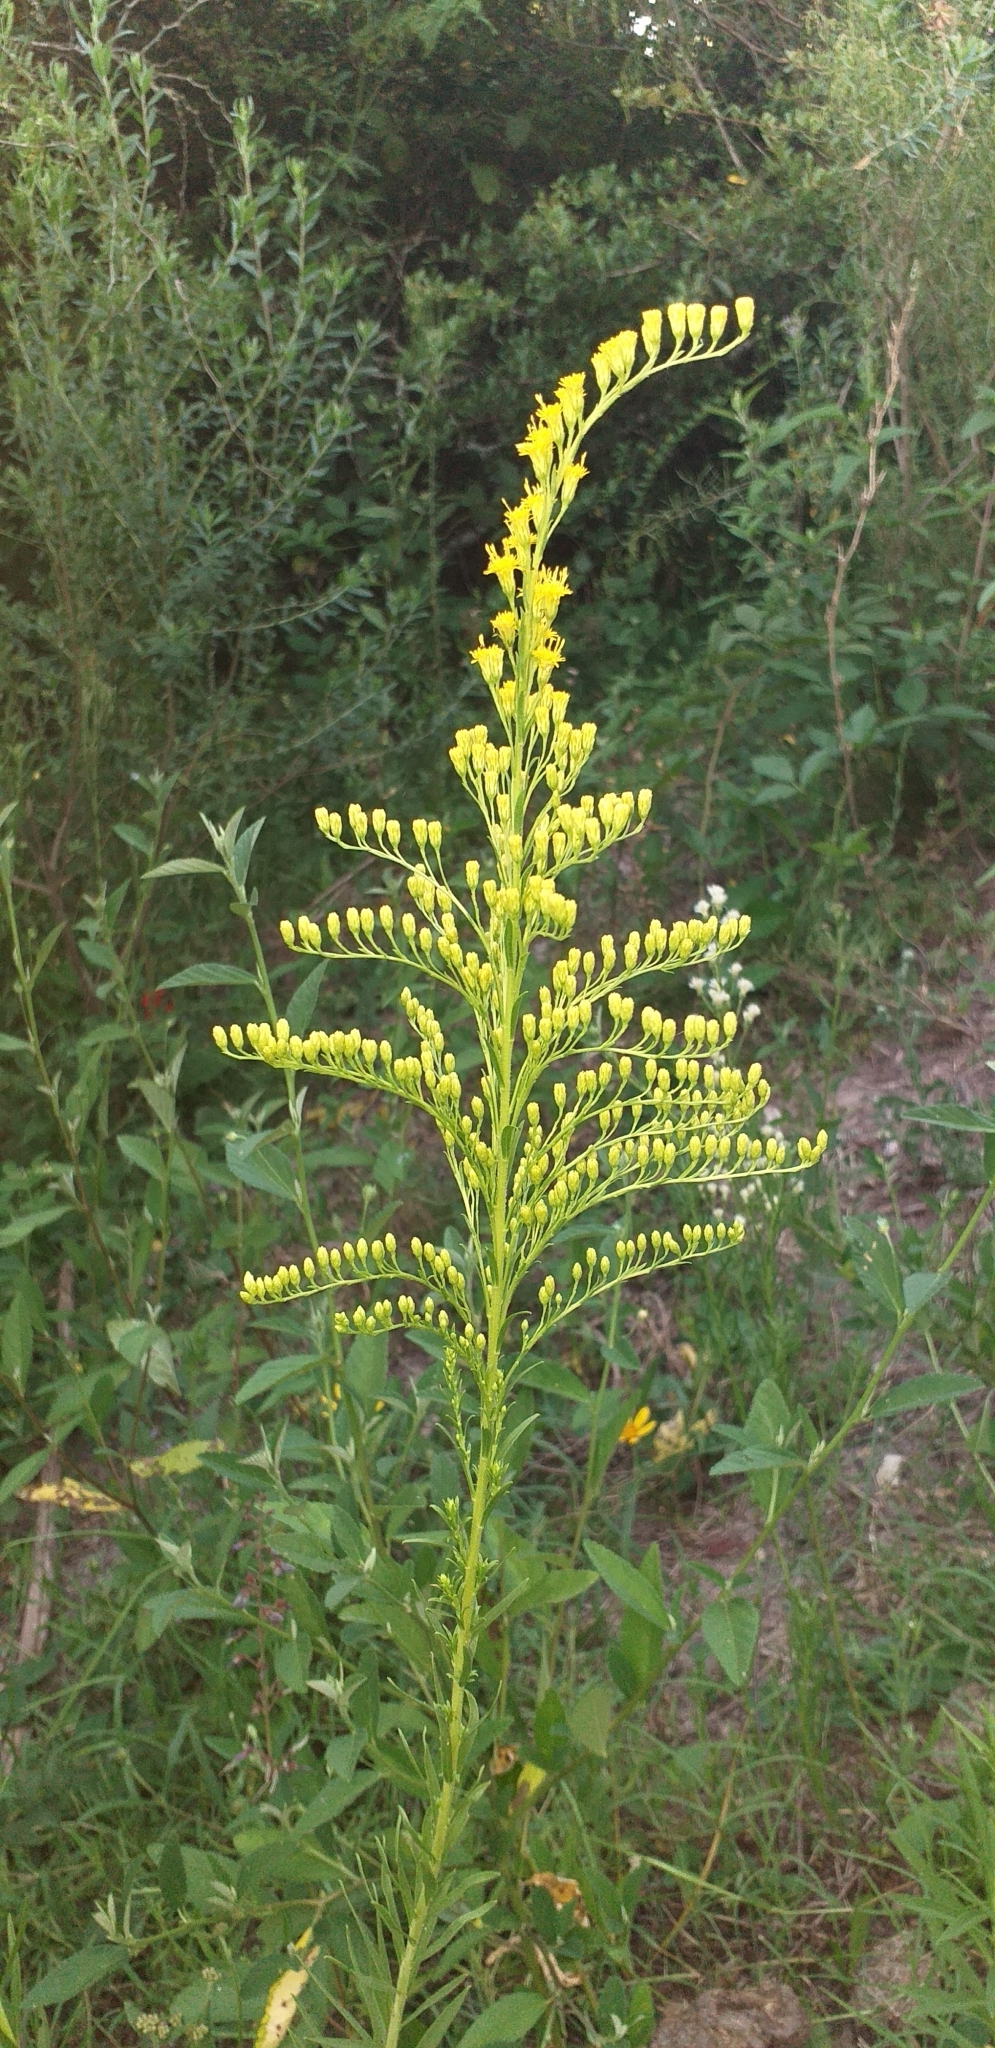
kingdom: Plantae
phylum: Tracheophyta
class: Magnoliopsida
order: Asterales
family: Asteraceae
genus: Solidago
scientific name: Solidago chilensis
